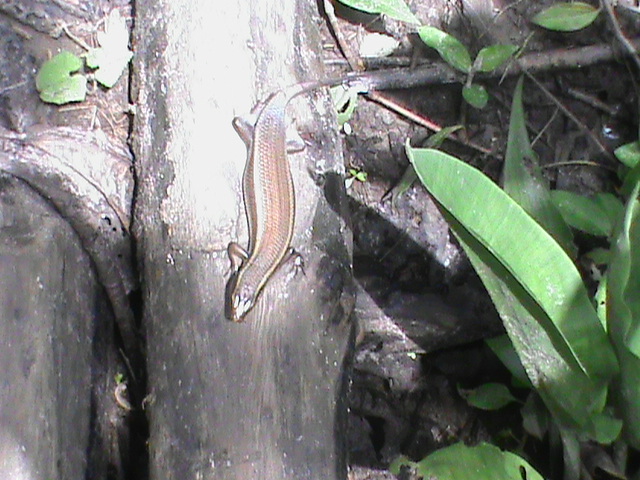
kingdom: Animalia
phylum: Chordata
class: Squamata
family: Scincidae
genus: Eutropis
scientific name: Eutropis carinata
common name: Keeled indian mabuya
